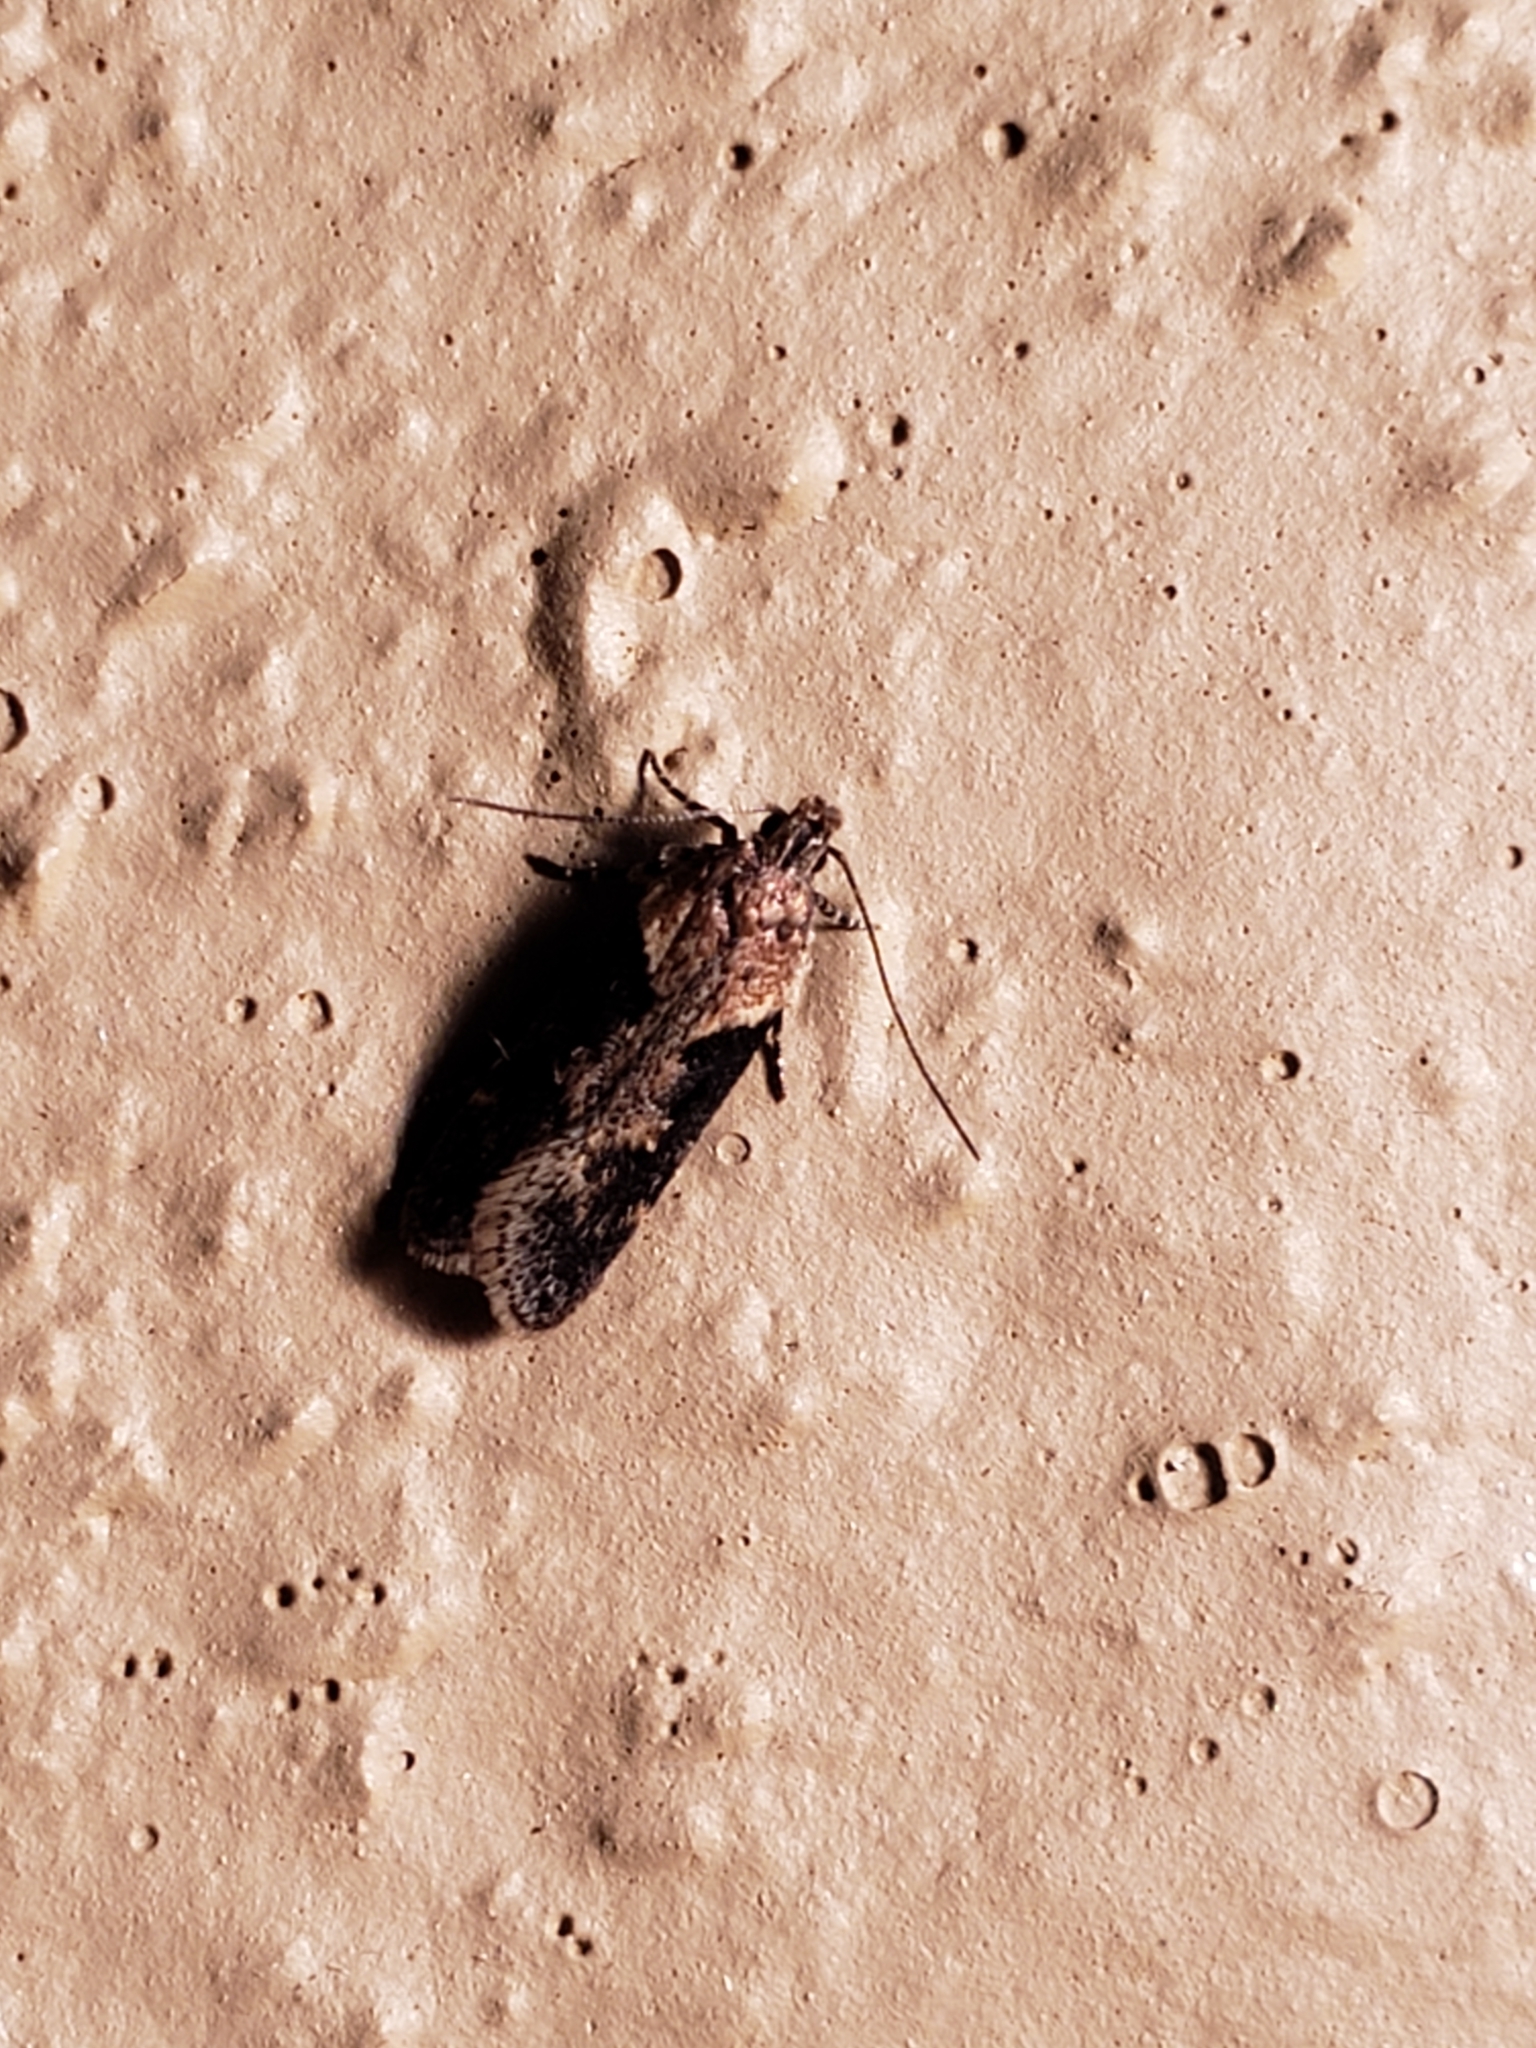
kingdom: Animalia
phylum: Arthropoda
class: Insecta
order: Lepidoptera
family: Gelechiidae
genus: Chionodes
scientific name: Chionodes mediofuscella
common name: Black-smudged chionodes moth
